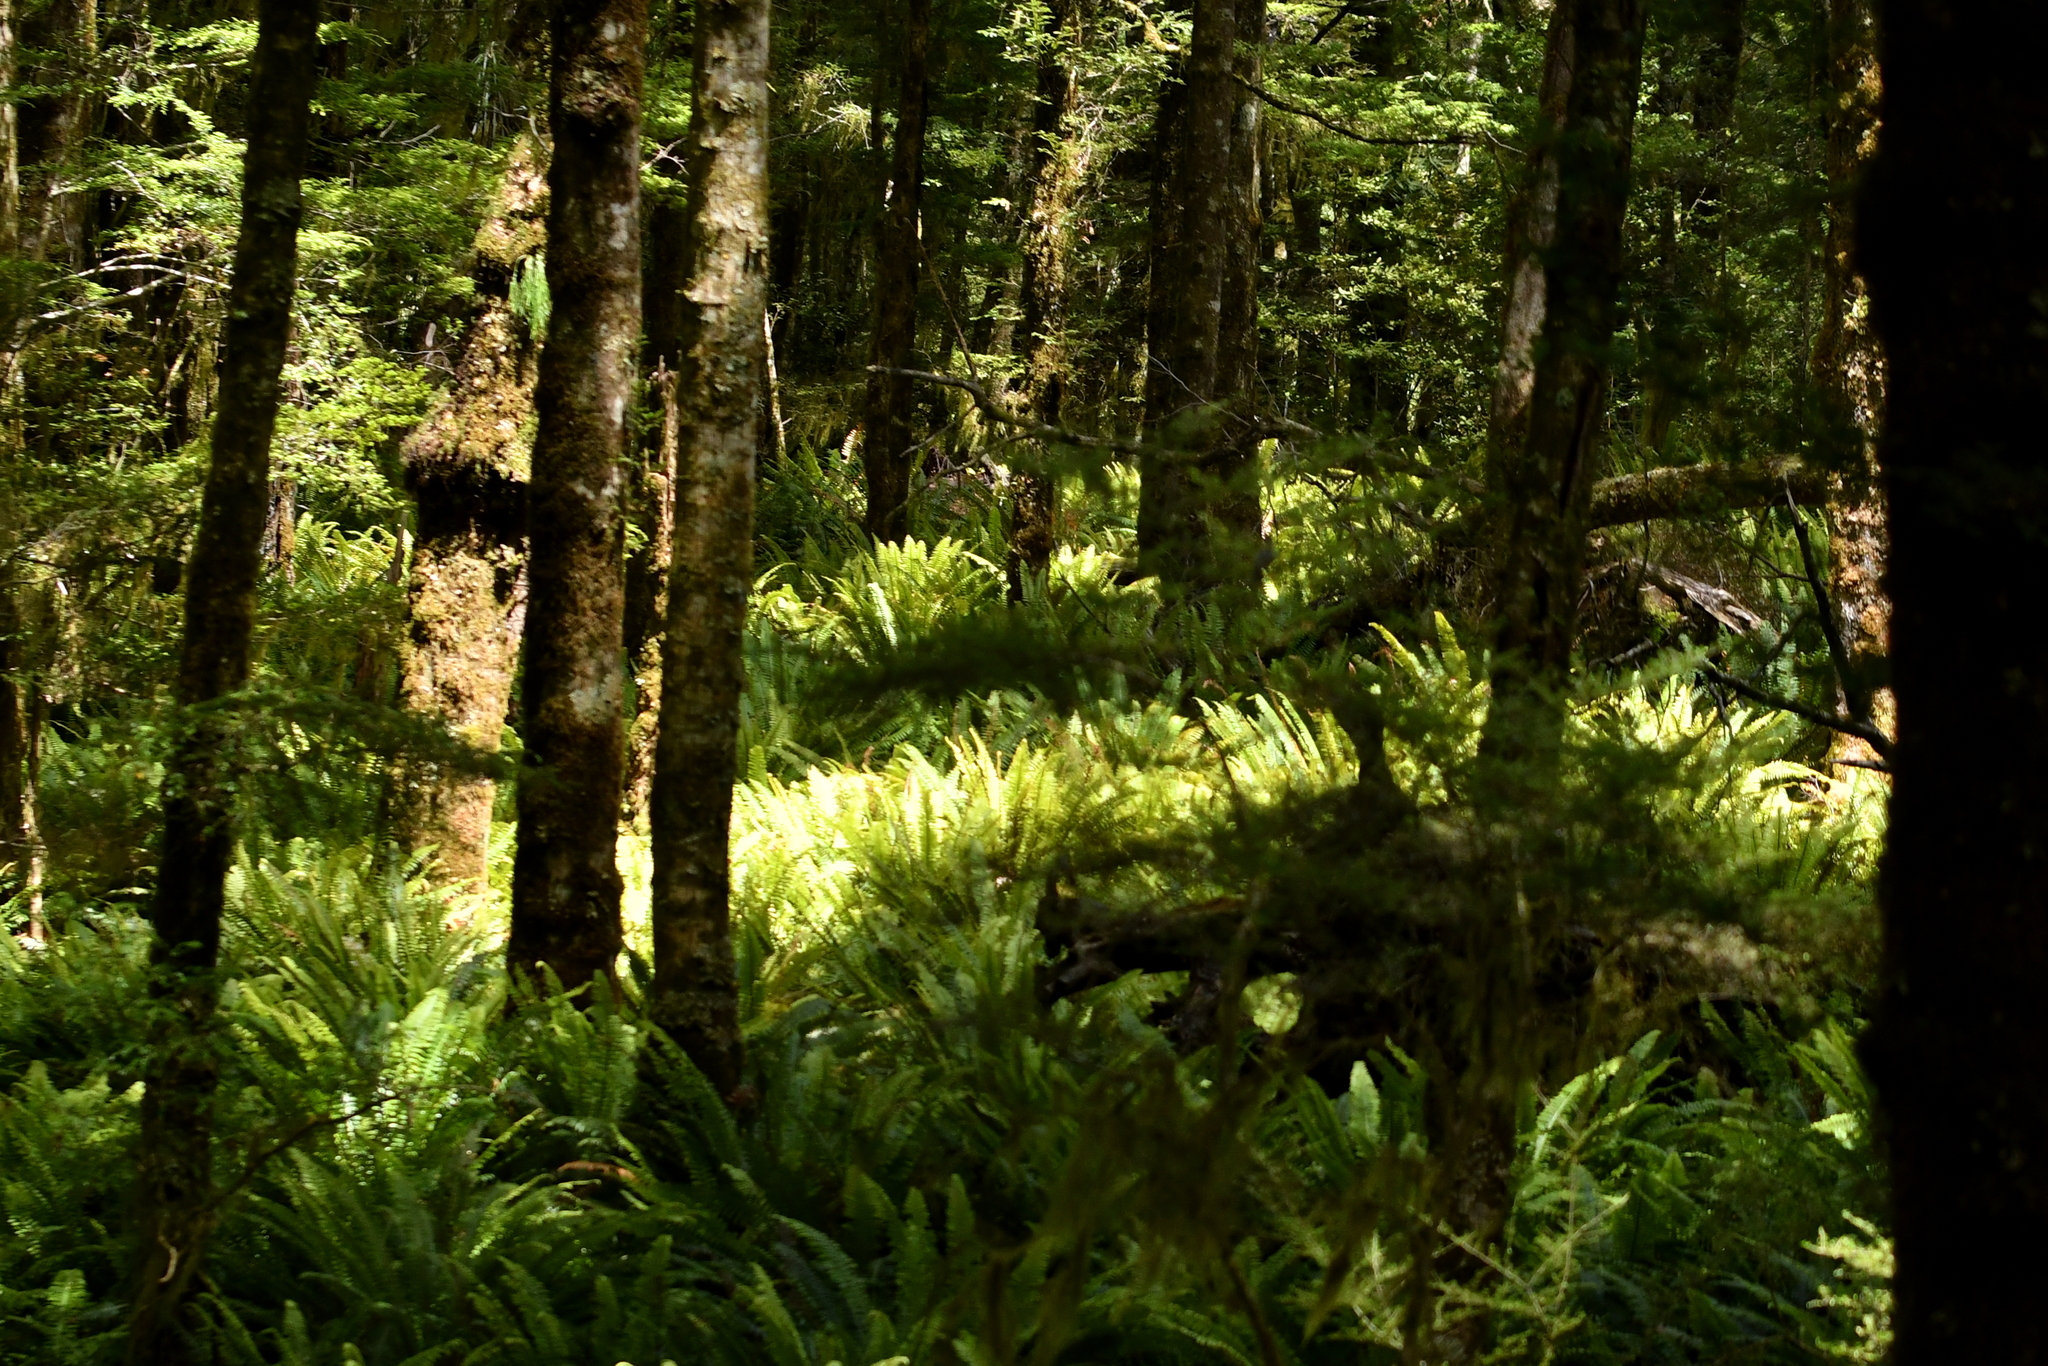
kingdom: Plantae
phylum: Tracheophyta
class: Polypodiopsida
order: Polypodiales
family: Blechnaceae
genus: Lomaria
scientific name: Lomaria discolor
